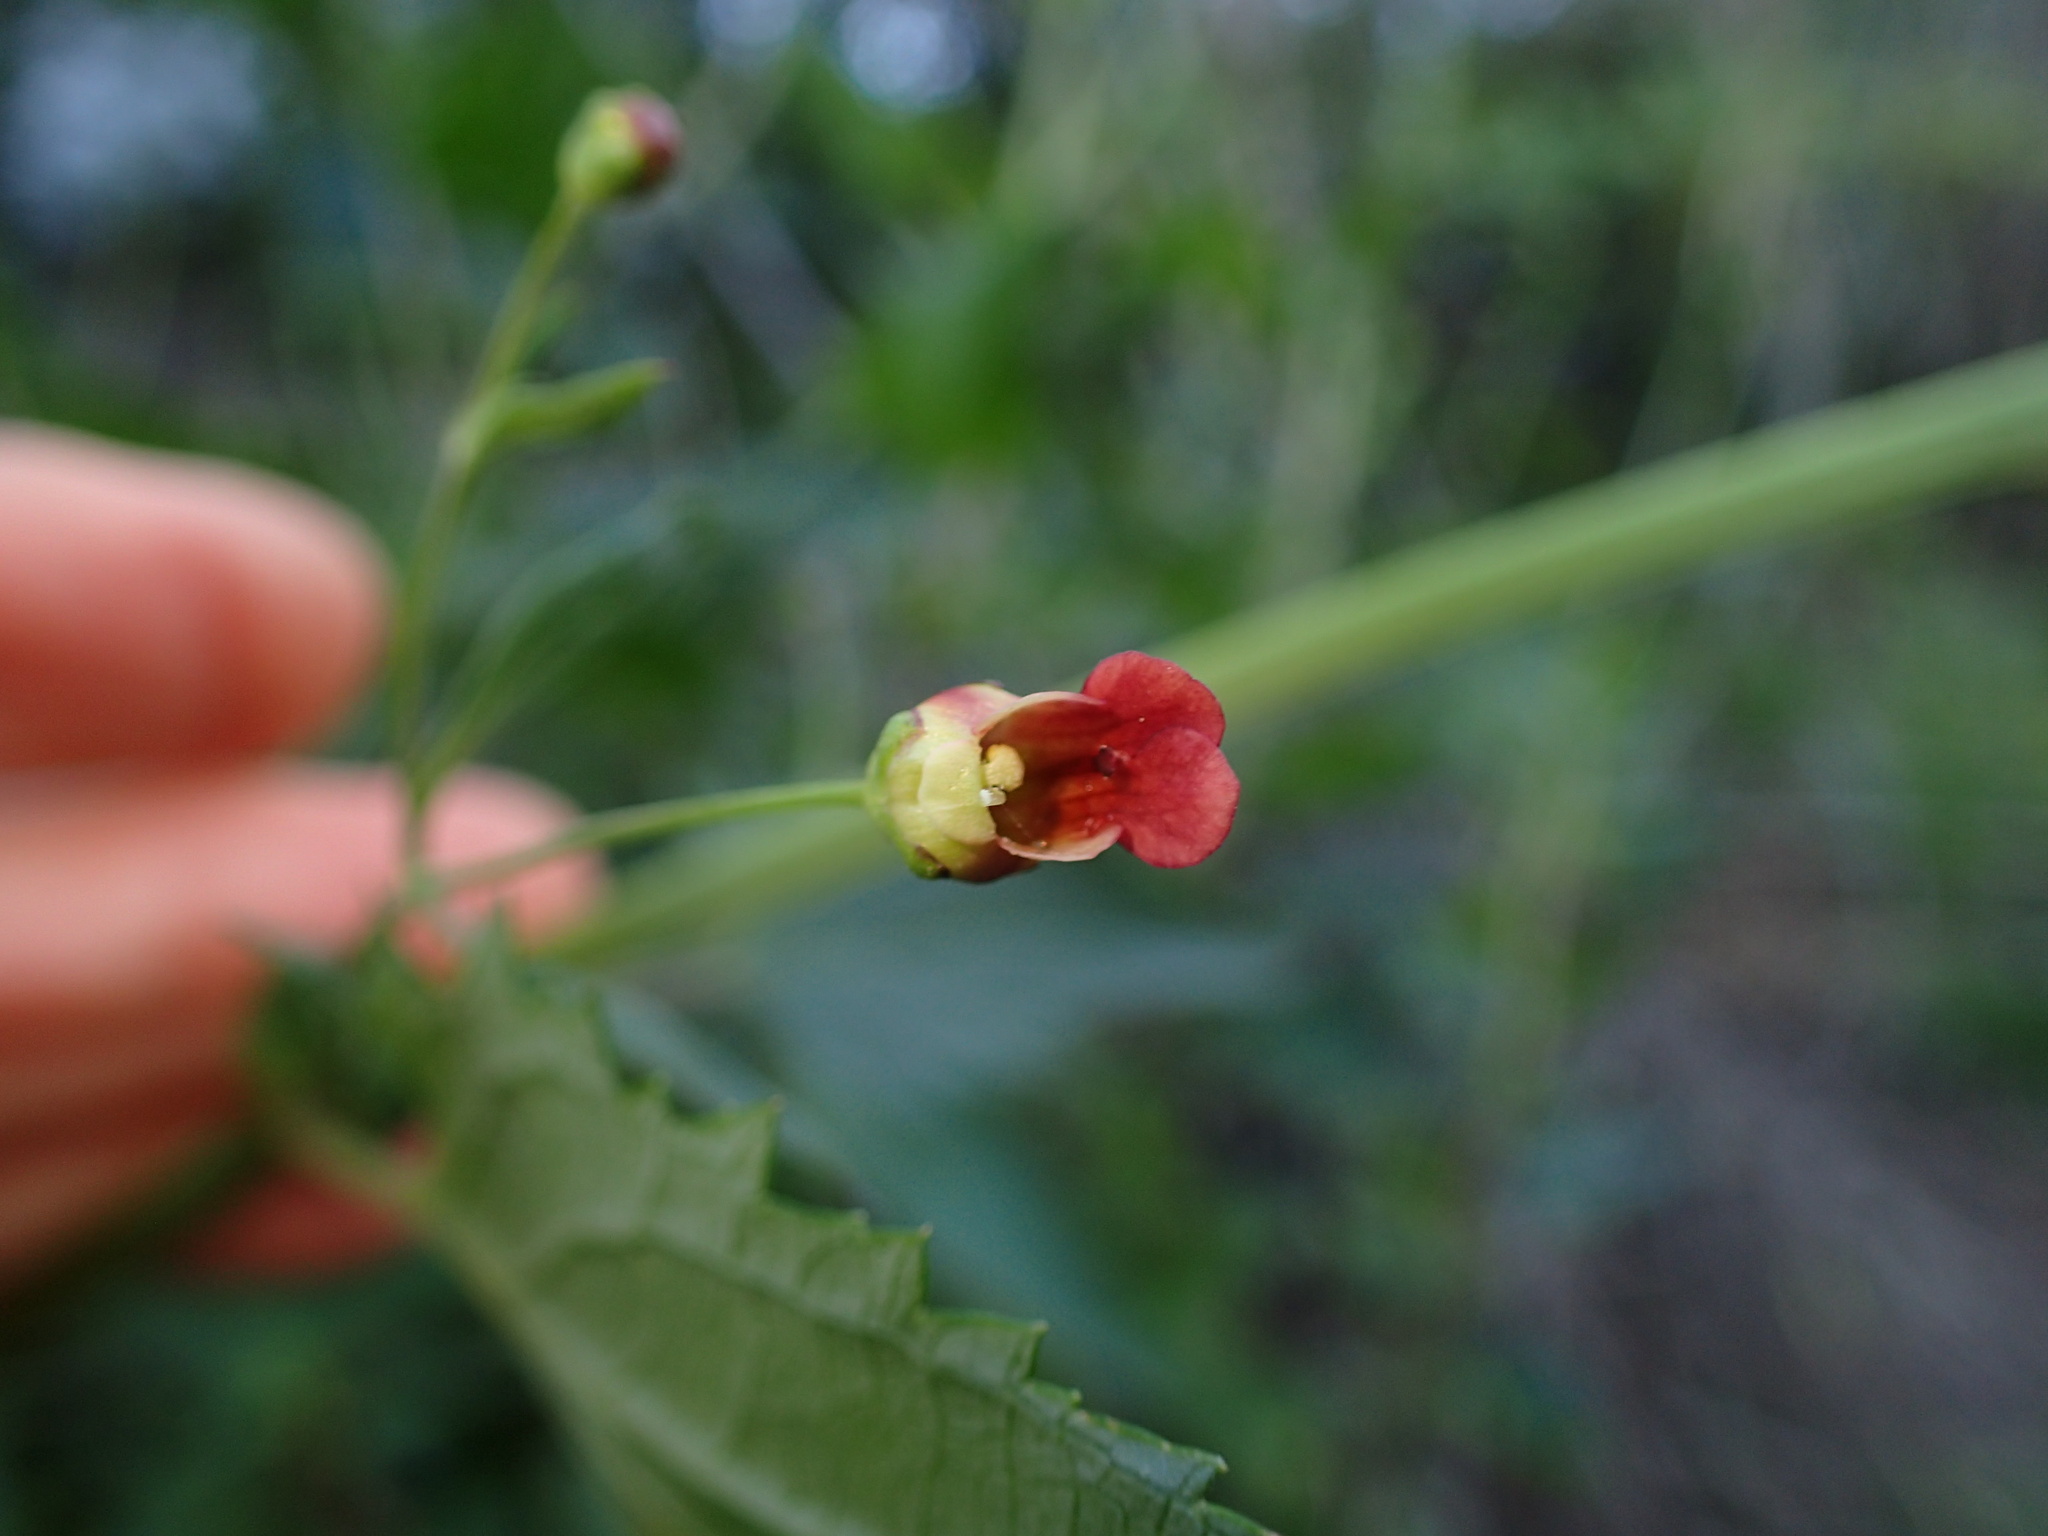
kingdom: Plantae
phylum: Tracheophyta
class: Magnoliopsida
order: Lamiales
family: Scrophulariaceae
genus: Scrophularia
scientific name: Scrophularia californica
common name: California figwort
